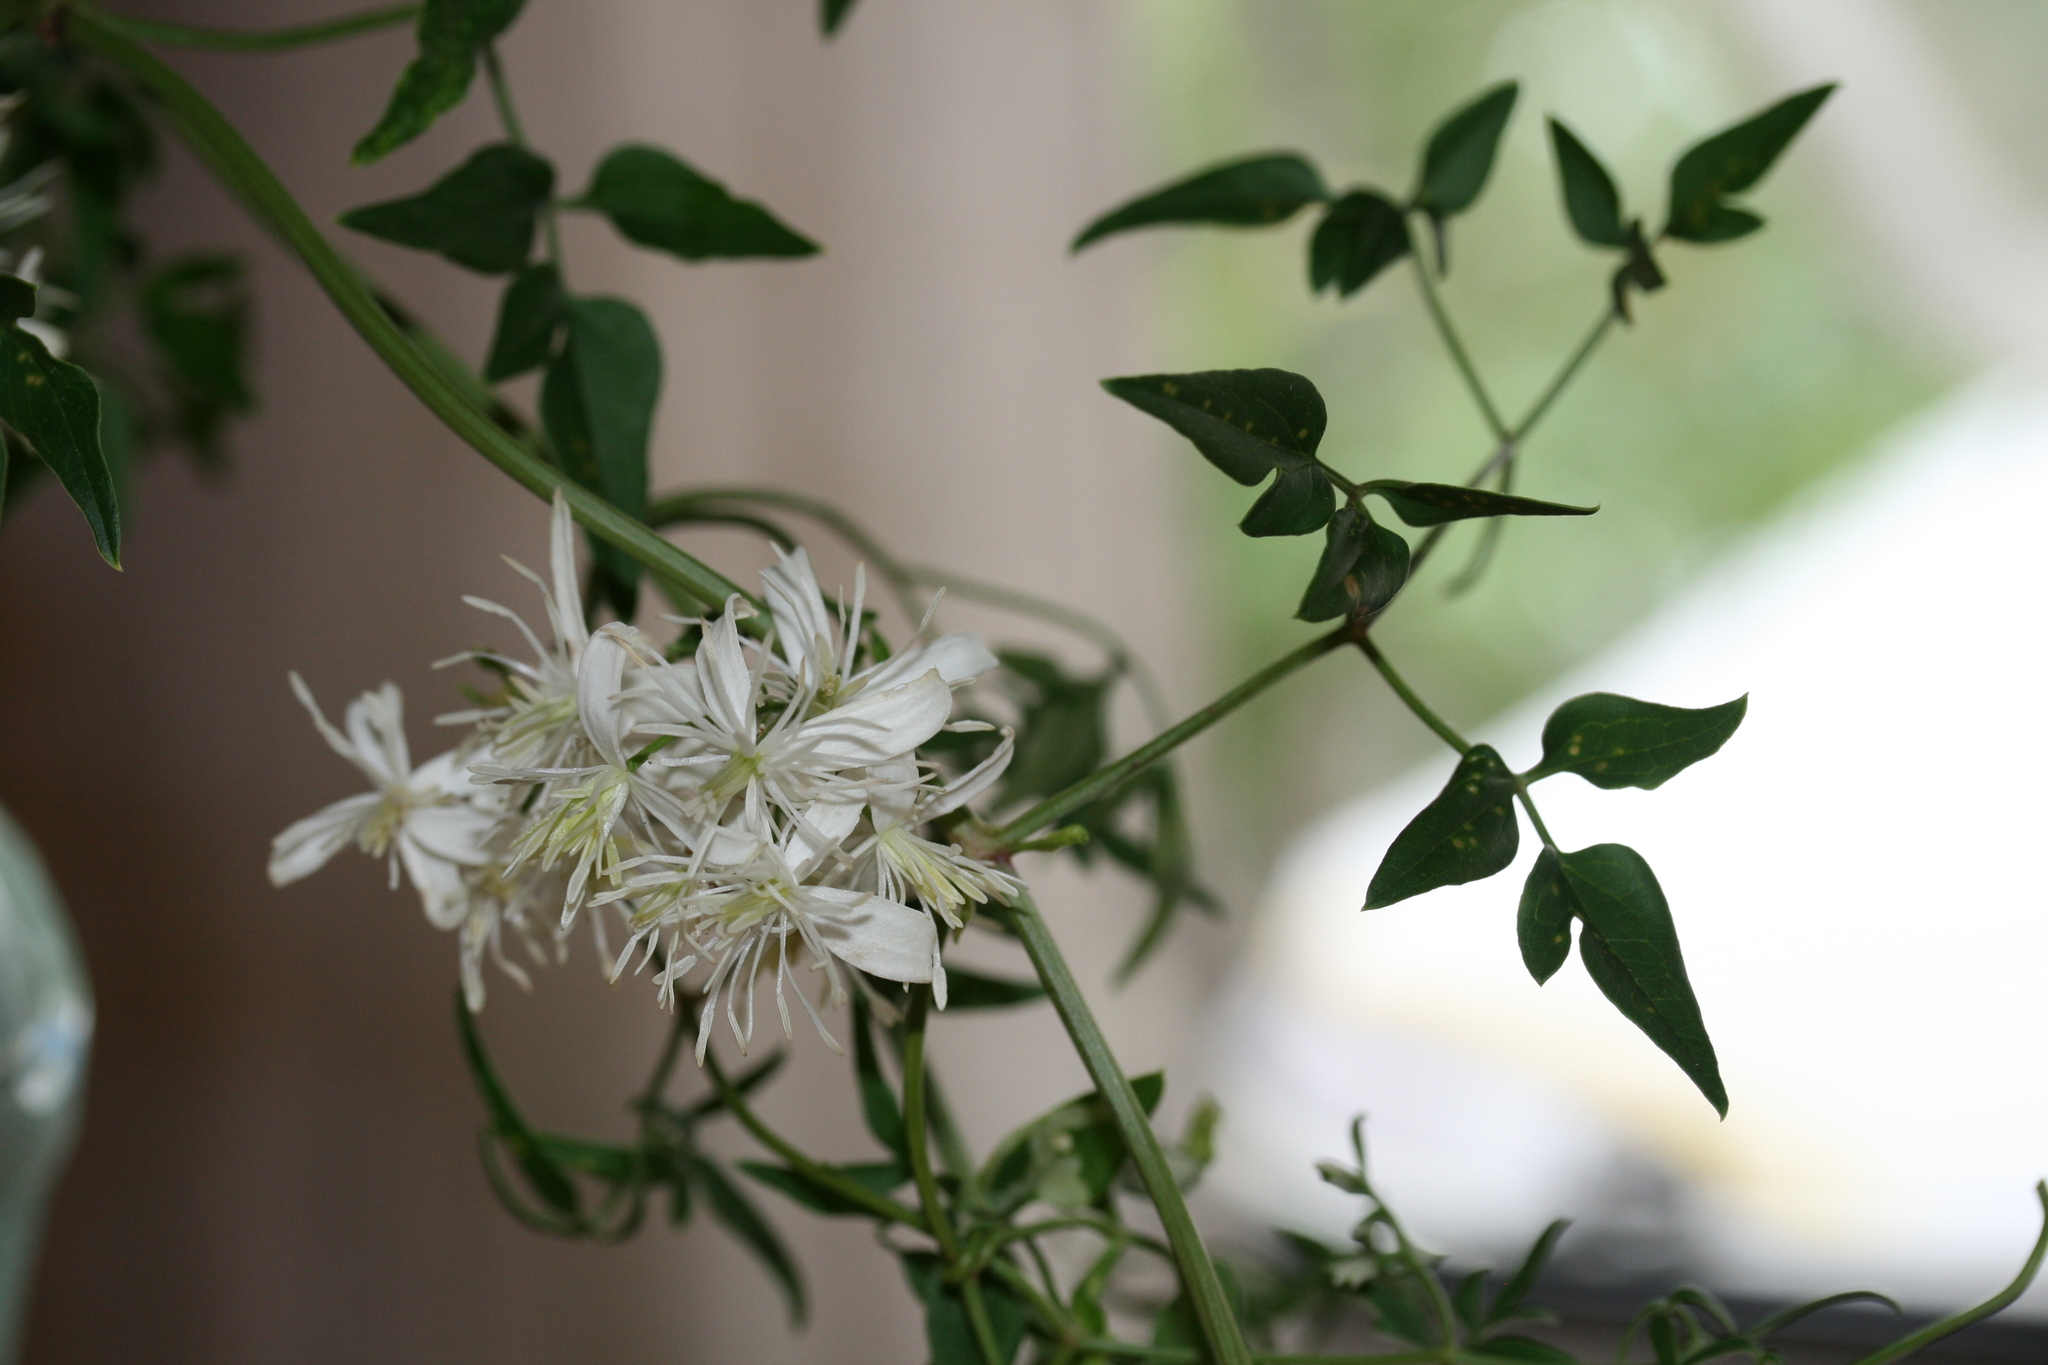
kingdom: Plantae
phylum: Tracheophyta
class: Magnoliopsida
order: Ranunculales
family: Ranunculaceae
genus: Clematis
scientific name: Clematis flammula
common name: Virgin's-bower
